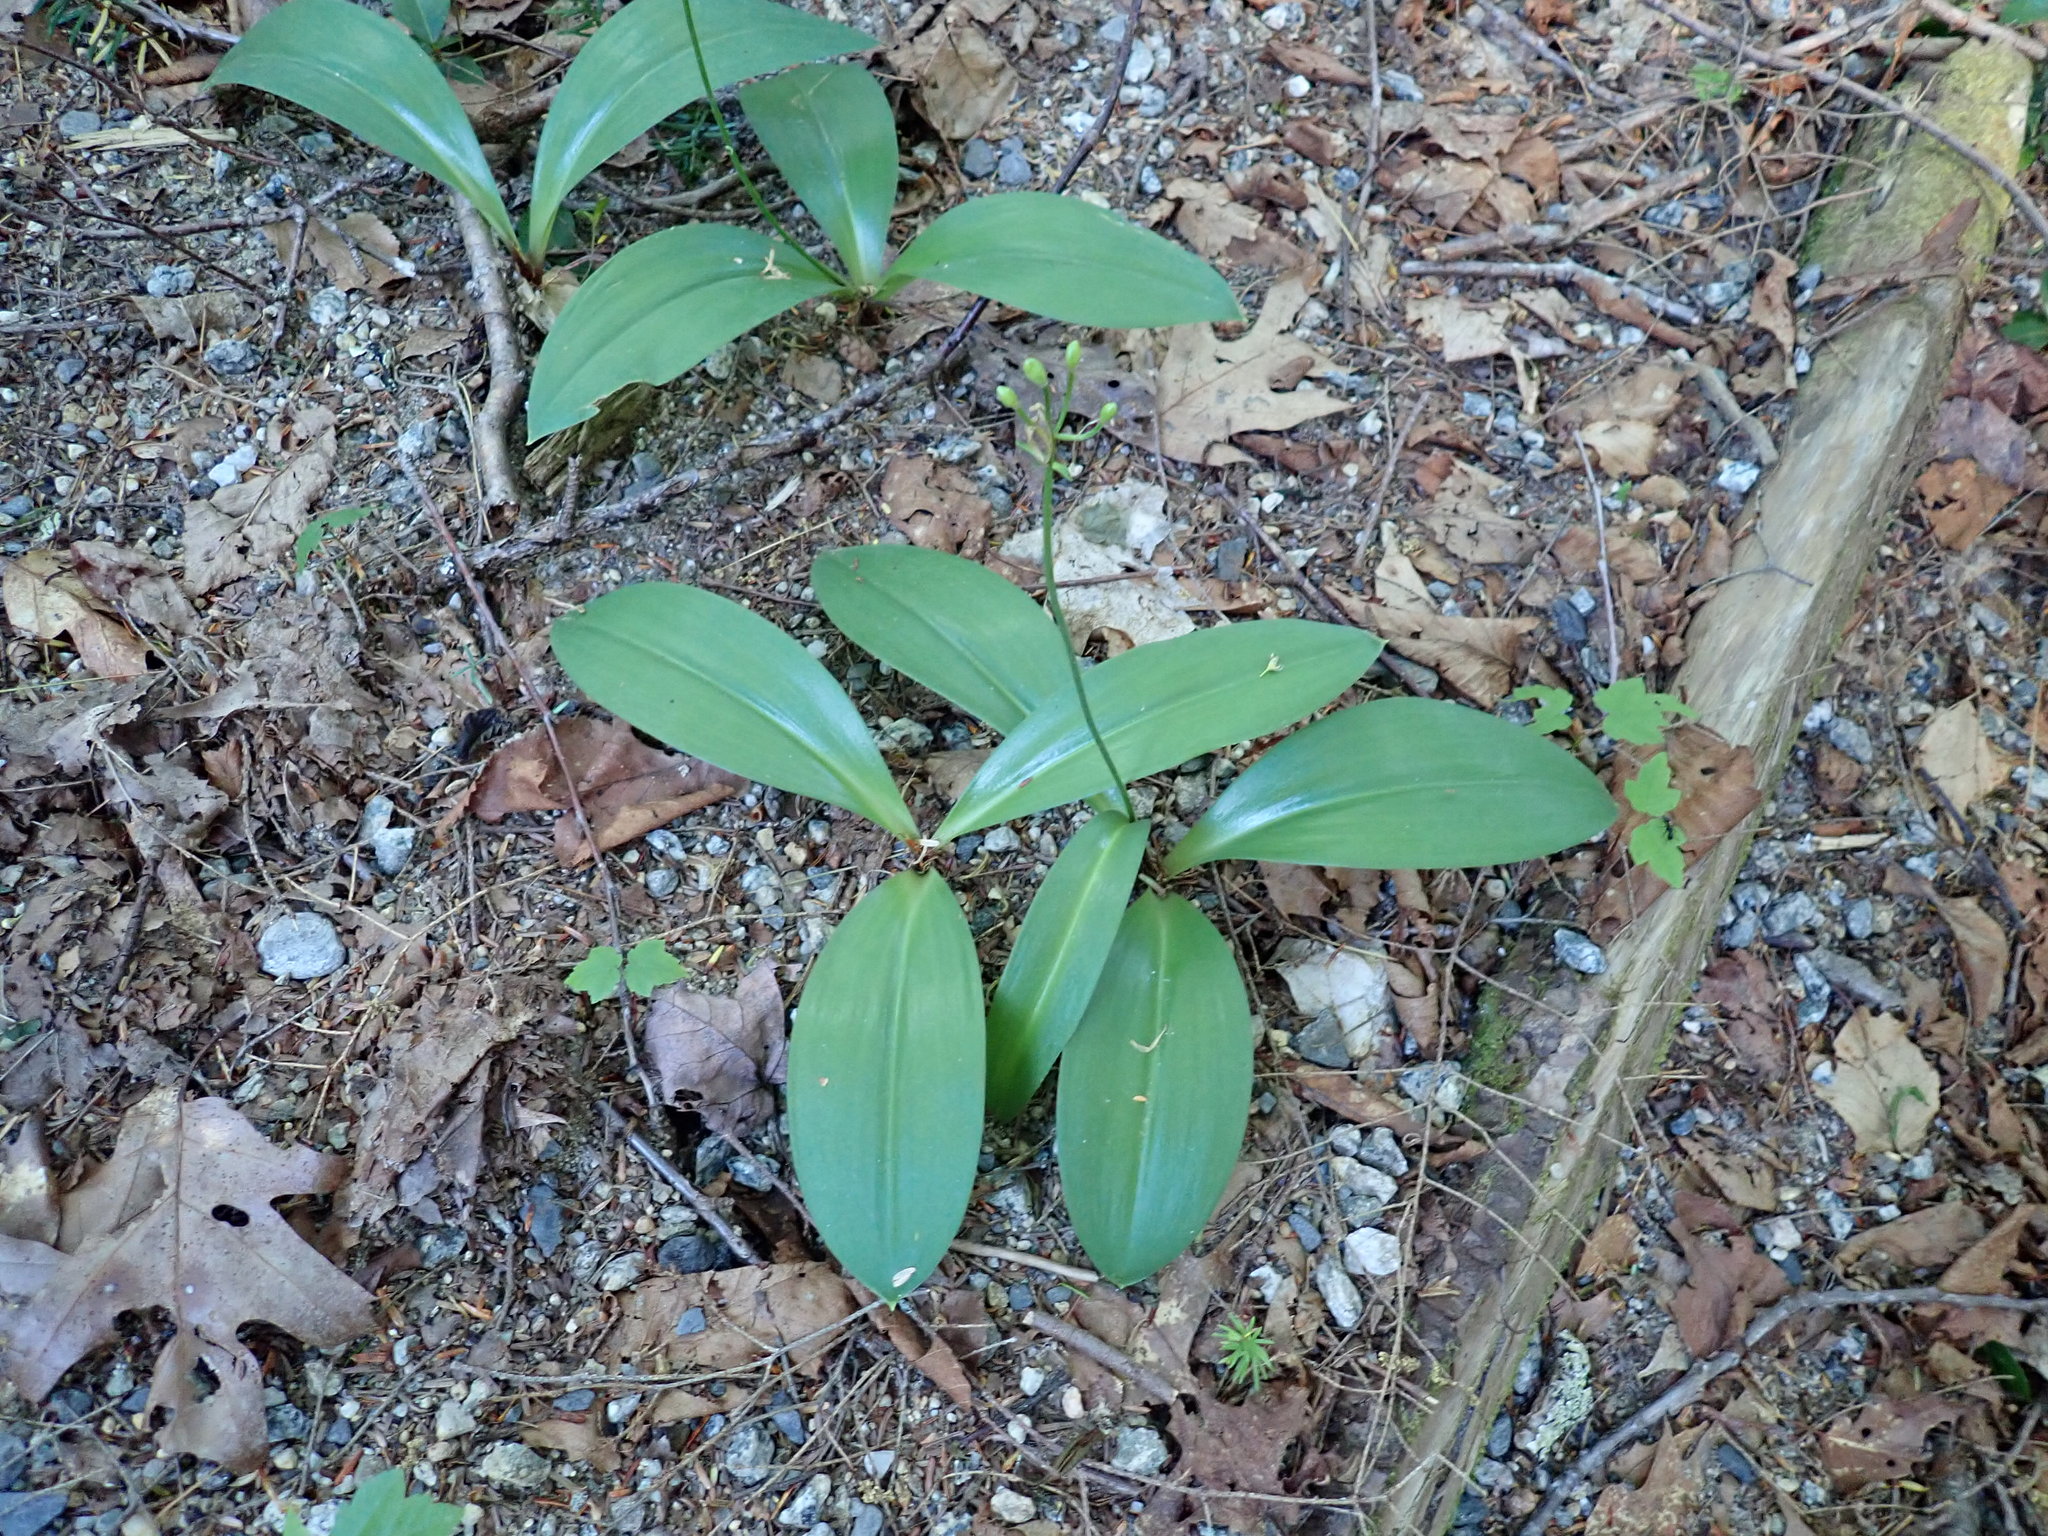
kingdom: Plantae
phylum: Tracheophyta
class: Liliopsida
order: Liliales
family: Liliaceae
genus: Clintonia
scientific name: Clintonia borealis
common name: Yellow clintonia
